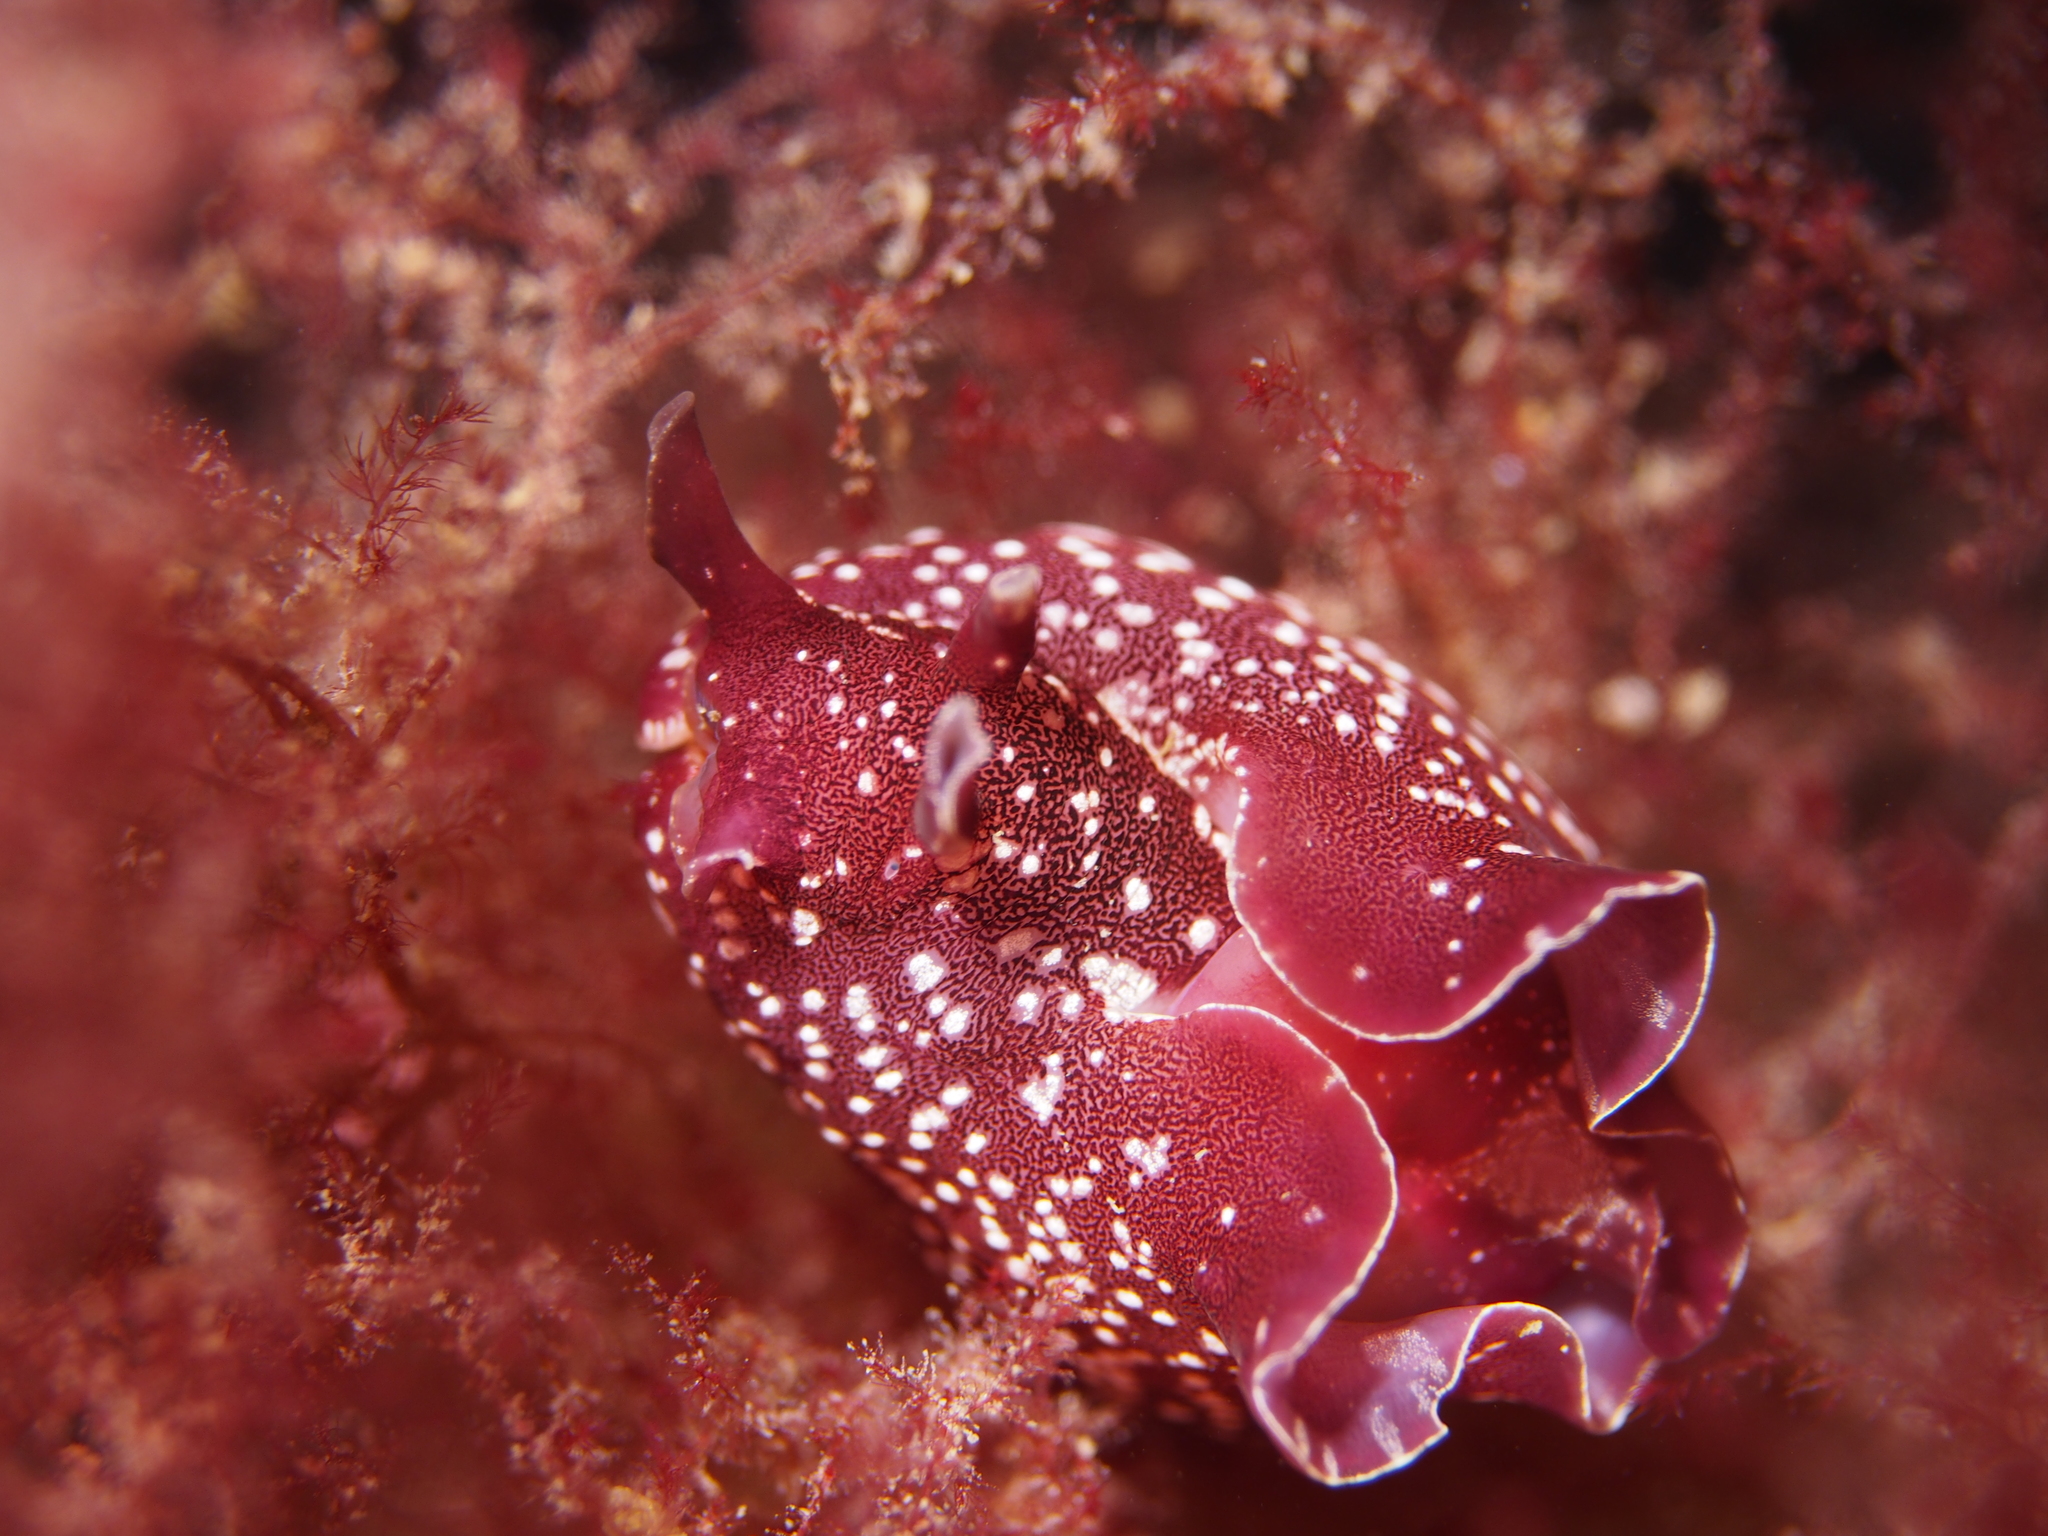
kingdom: Animalia
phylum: Mollusca
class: Gastropoda
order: Aplysiida
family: Aplysiidae
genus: Aplysia
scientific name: Aplysia punctata
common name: Common sea hare
